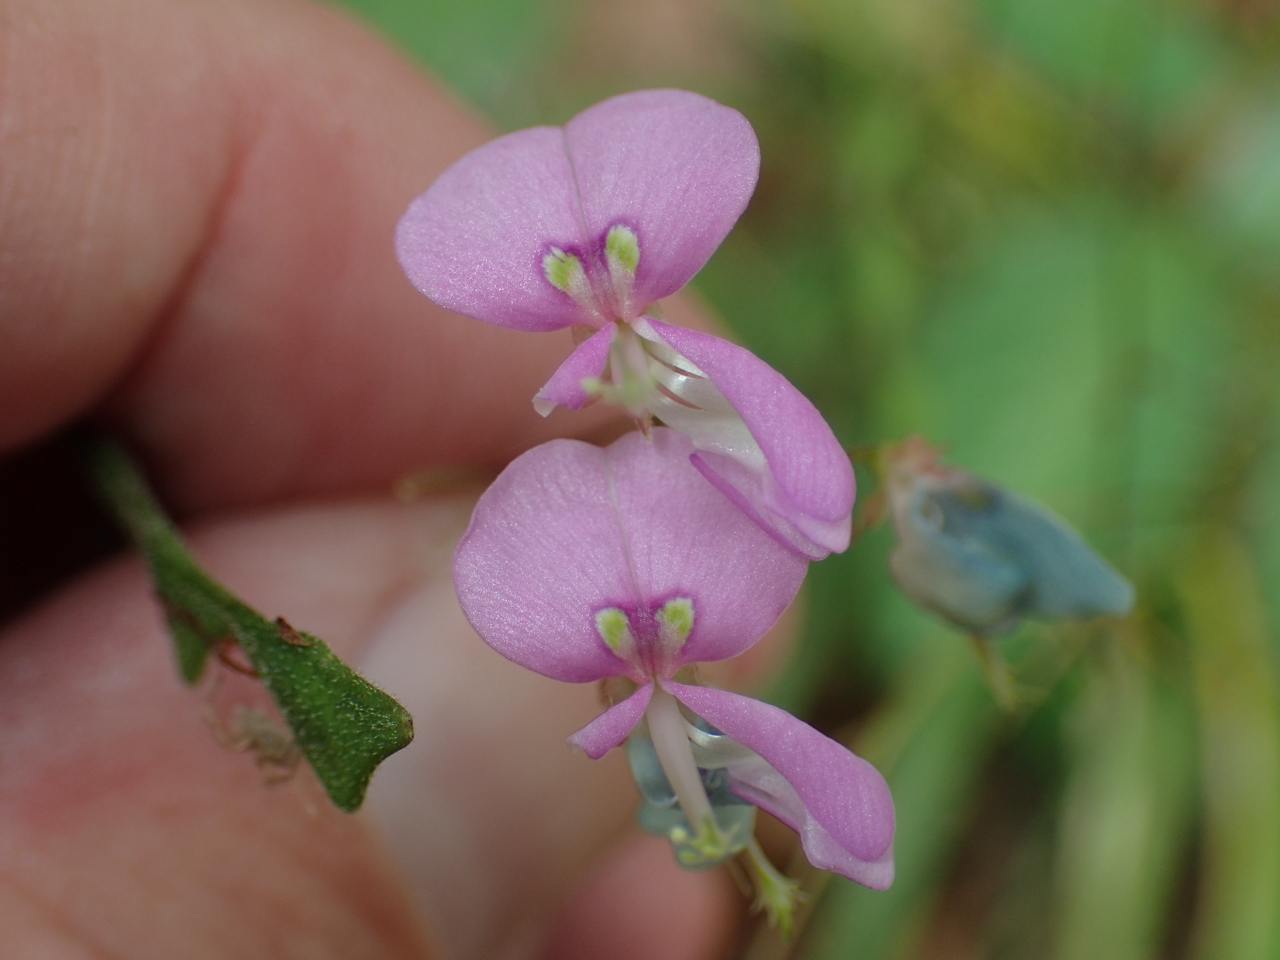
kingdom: Plantae
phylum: Tracheophyta
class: Magnoliopsida
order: Fabales
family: Fabaceae
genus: Desmodium
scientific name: Desmodium paniculatum
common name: Panicled tick-clover
